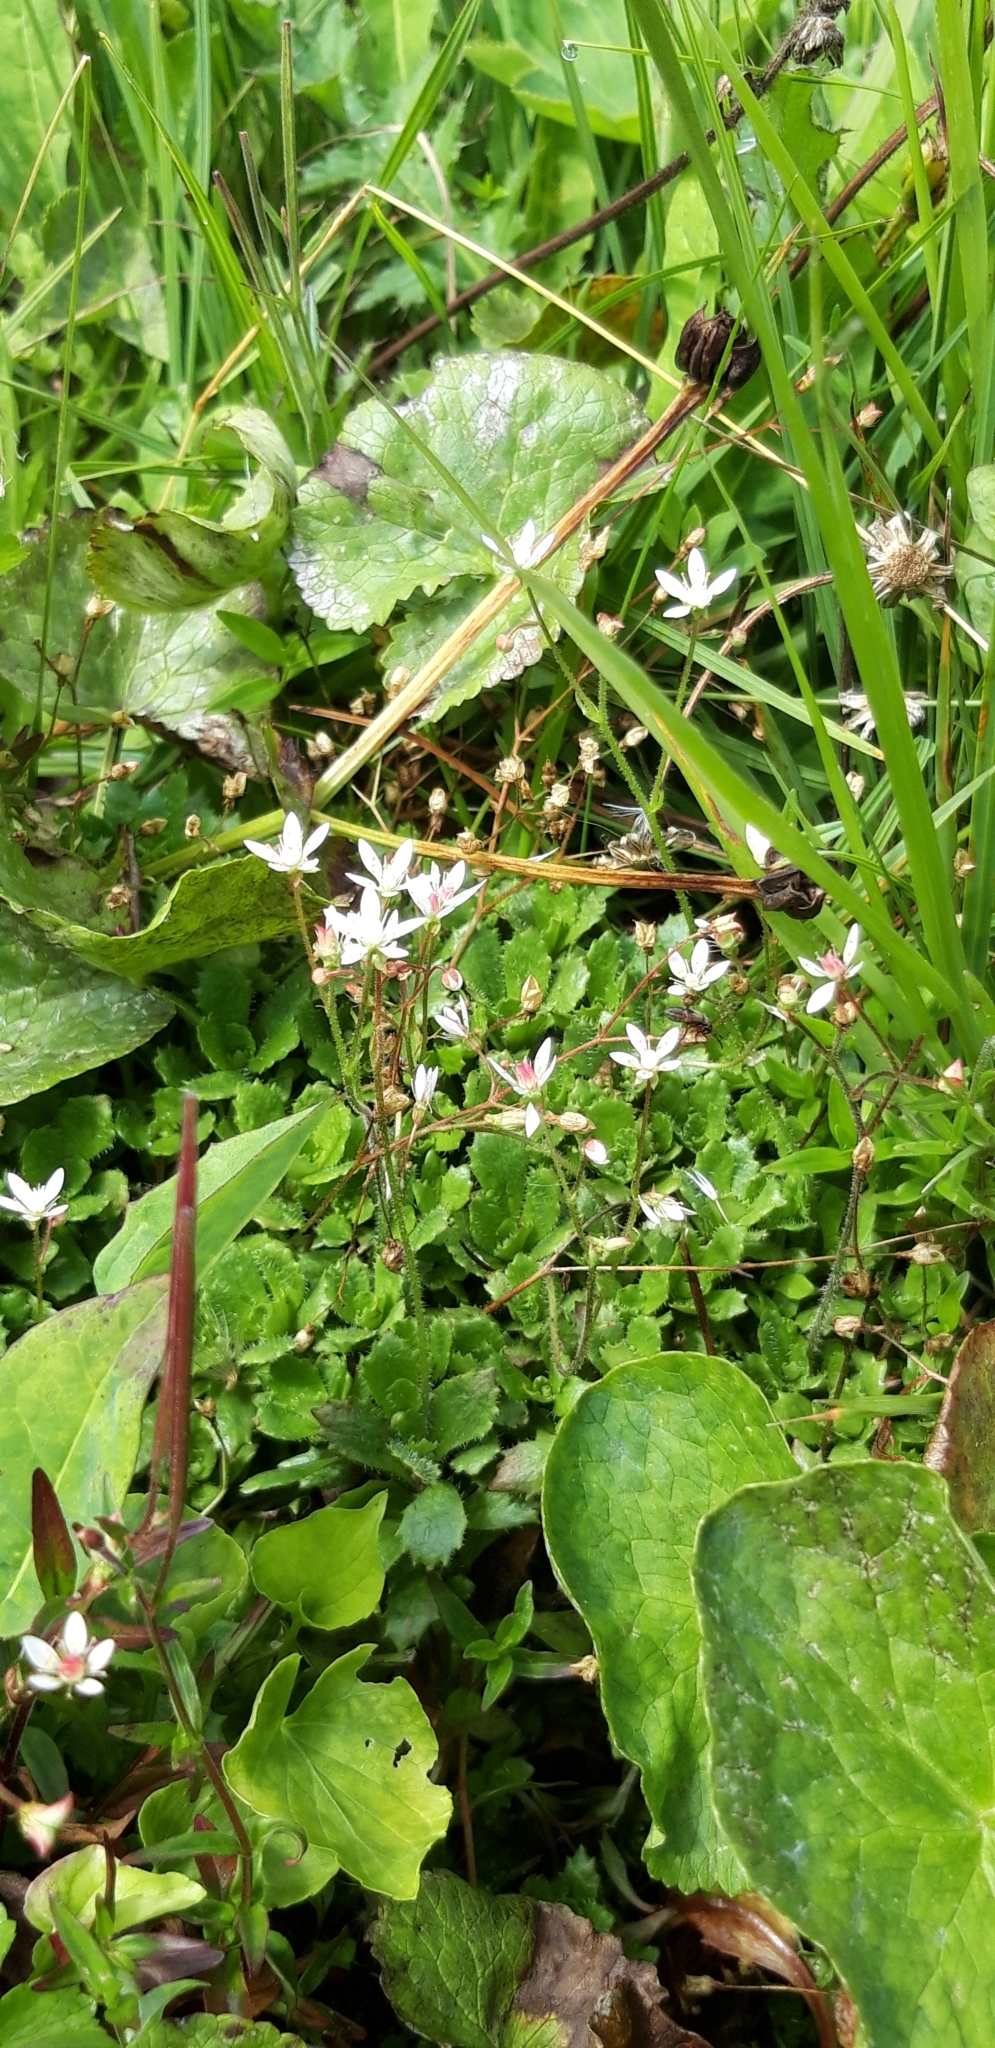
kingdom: Plantae
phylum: Tracheophyta
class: Magnoliopsida
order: Saxifragales
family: Saxifragaceae
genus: Micranthes
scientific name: Micranthes stellaris
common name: Starry saxifrage
